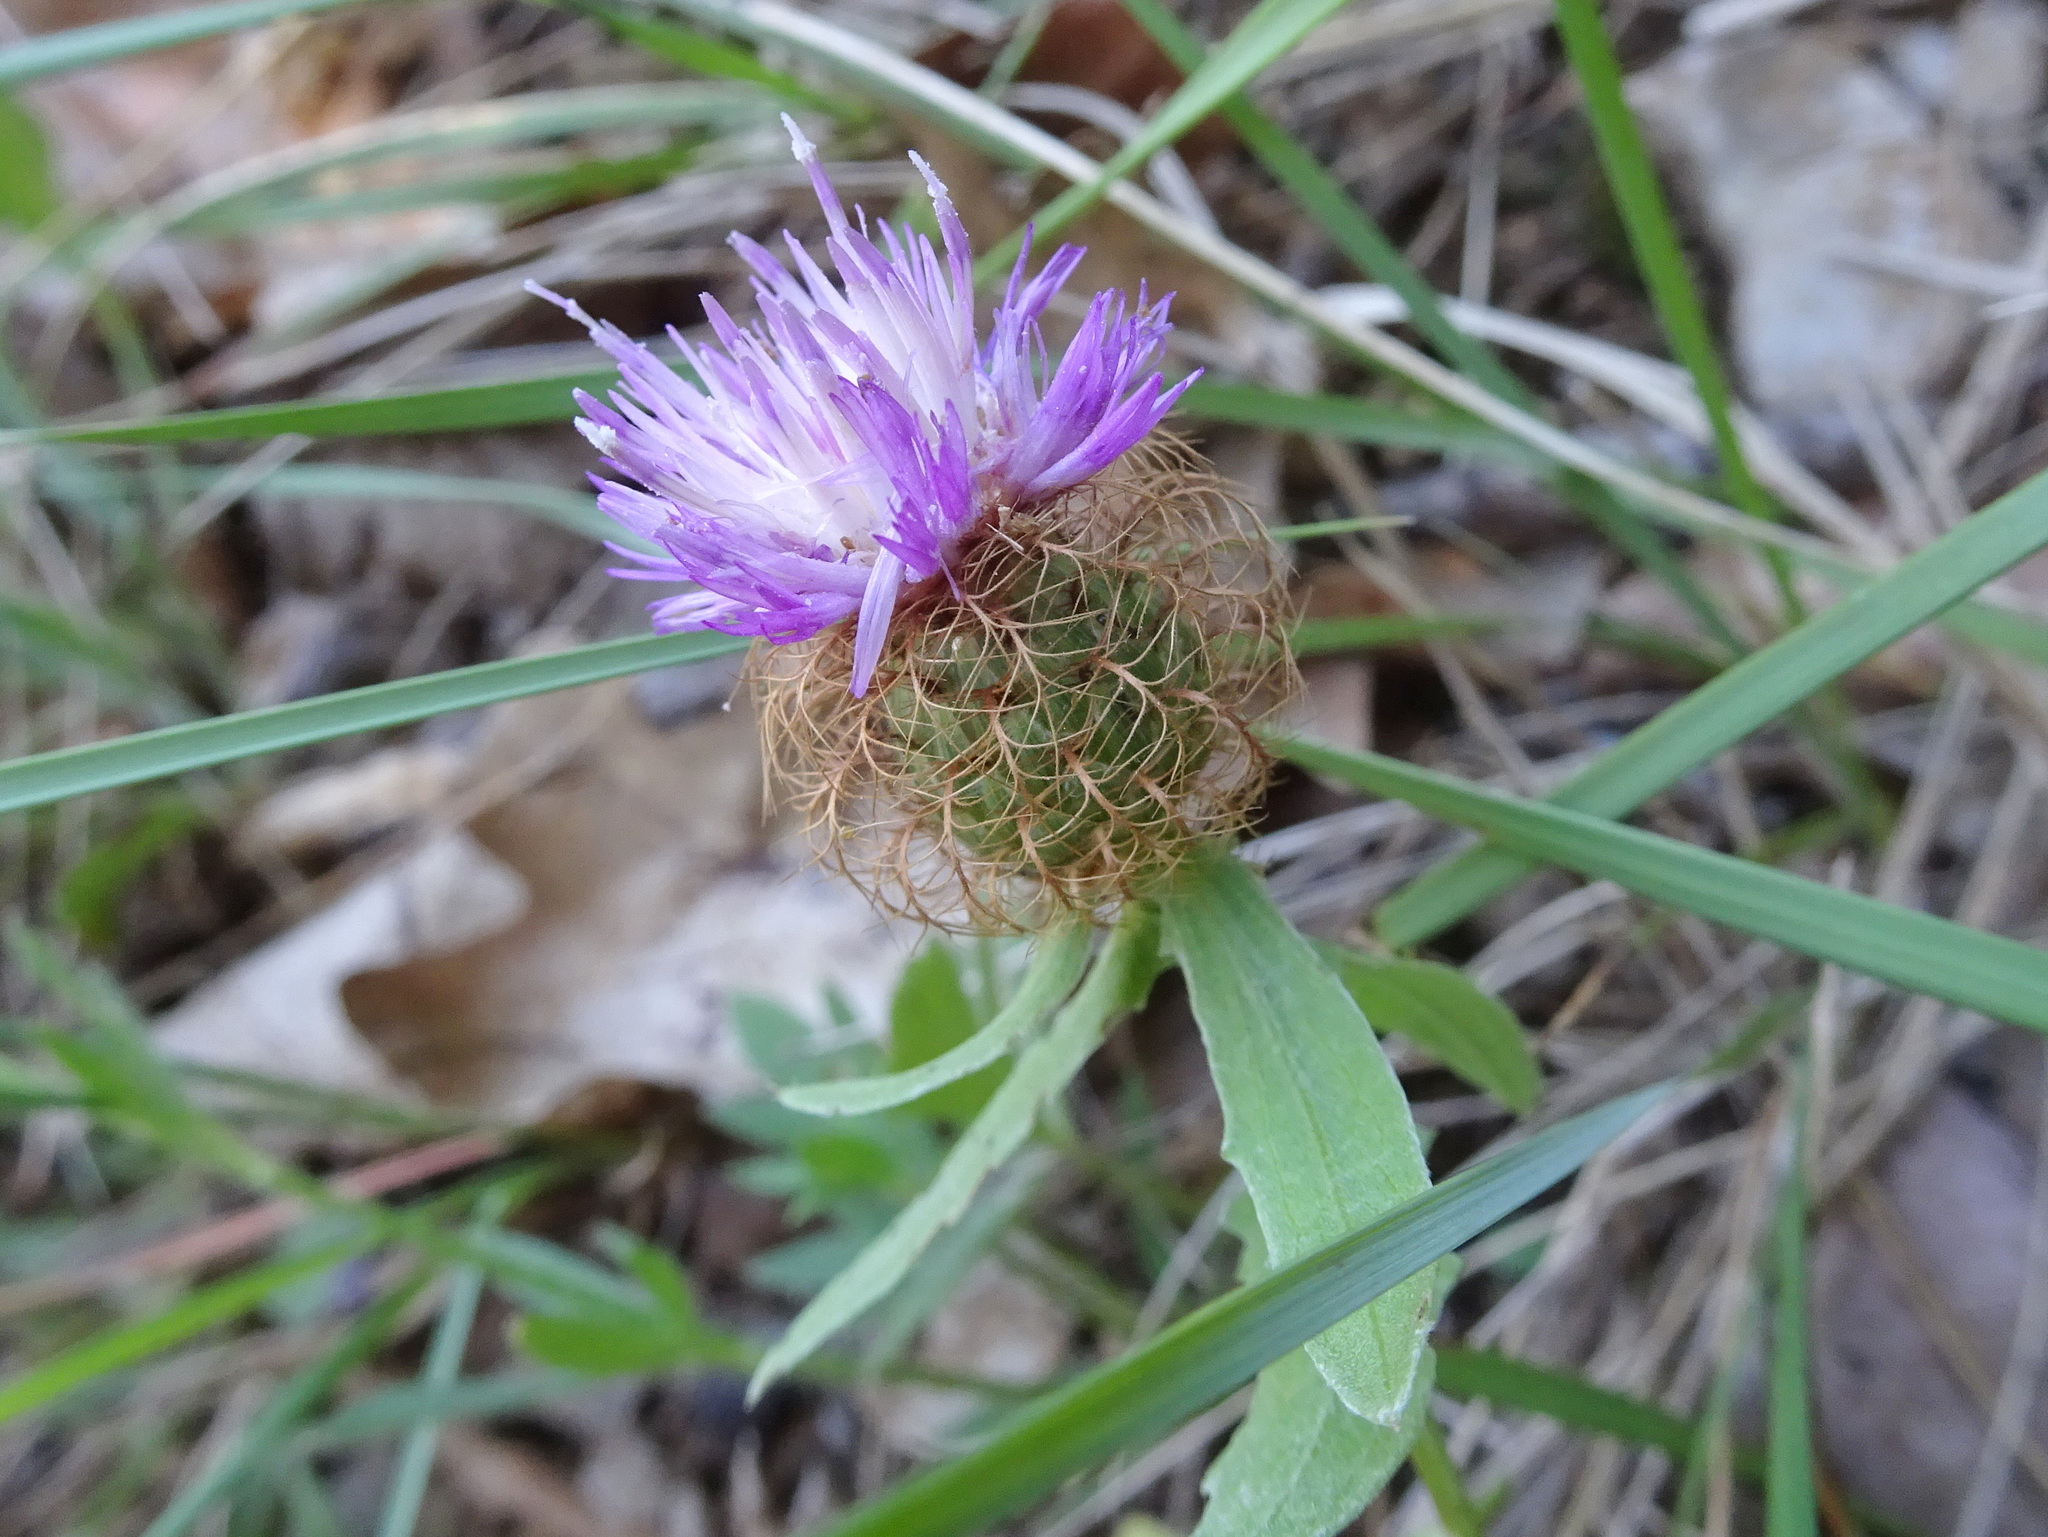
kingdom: Plantae
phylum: Tracheophyta
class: Magnoliopsida
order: Asterales
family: Asteraceae
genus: Centaurea
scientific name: Centaurea pectinata
